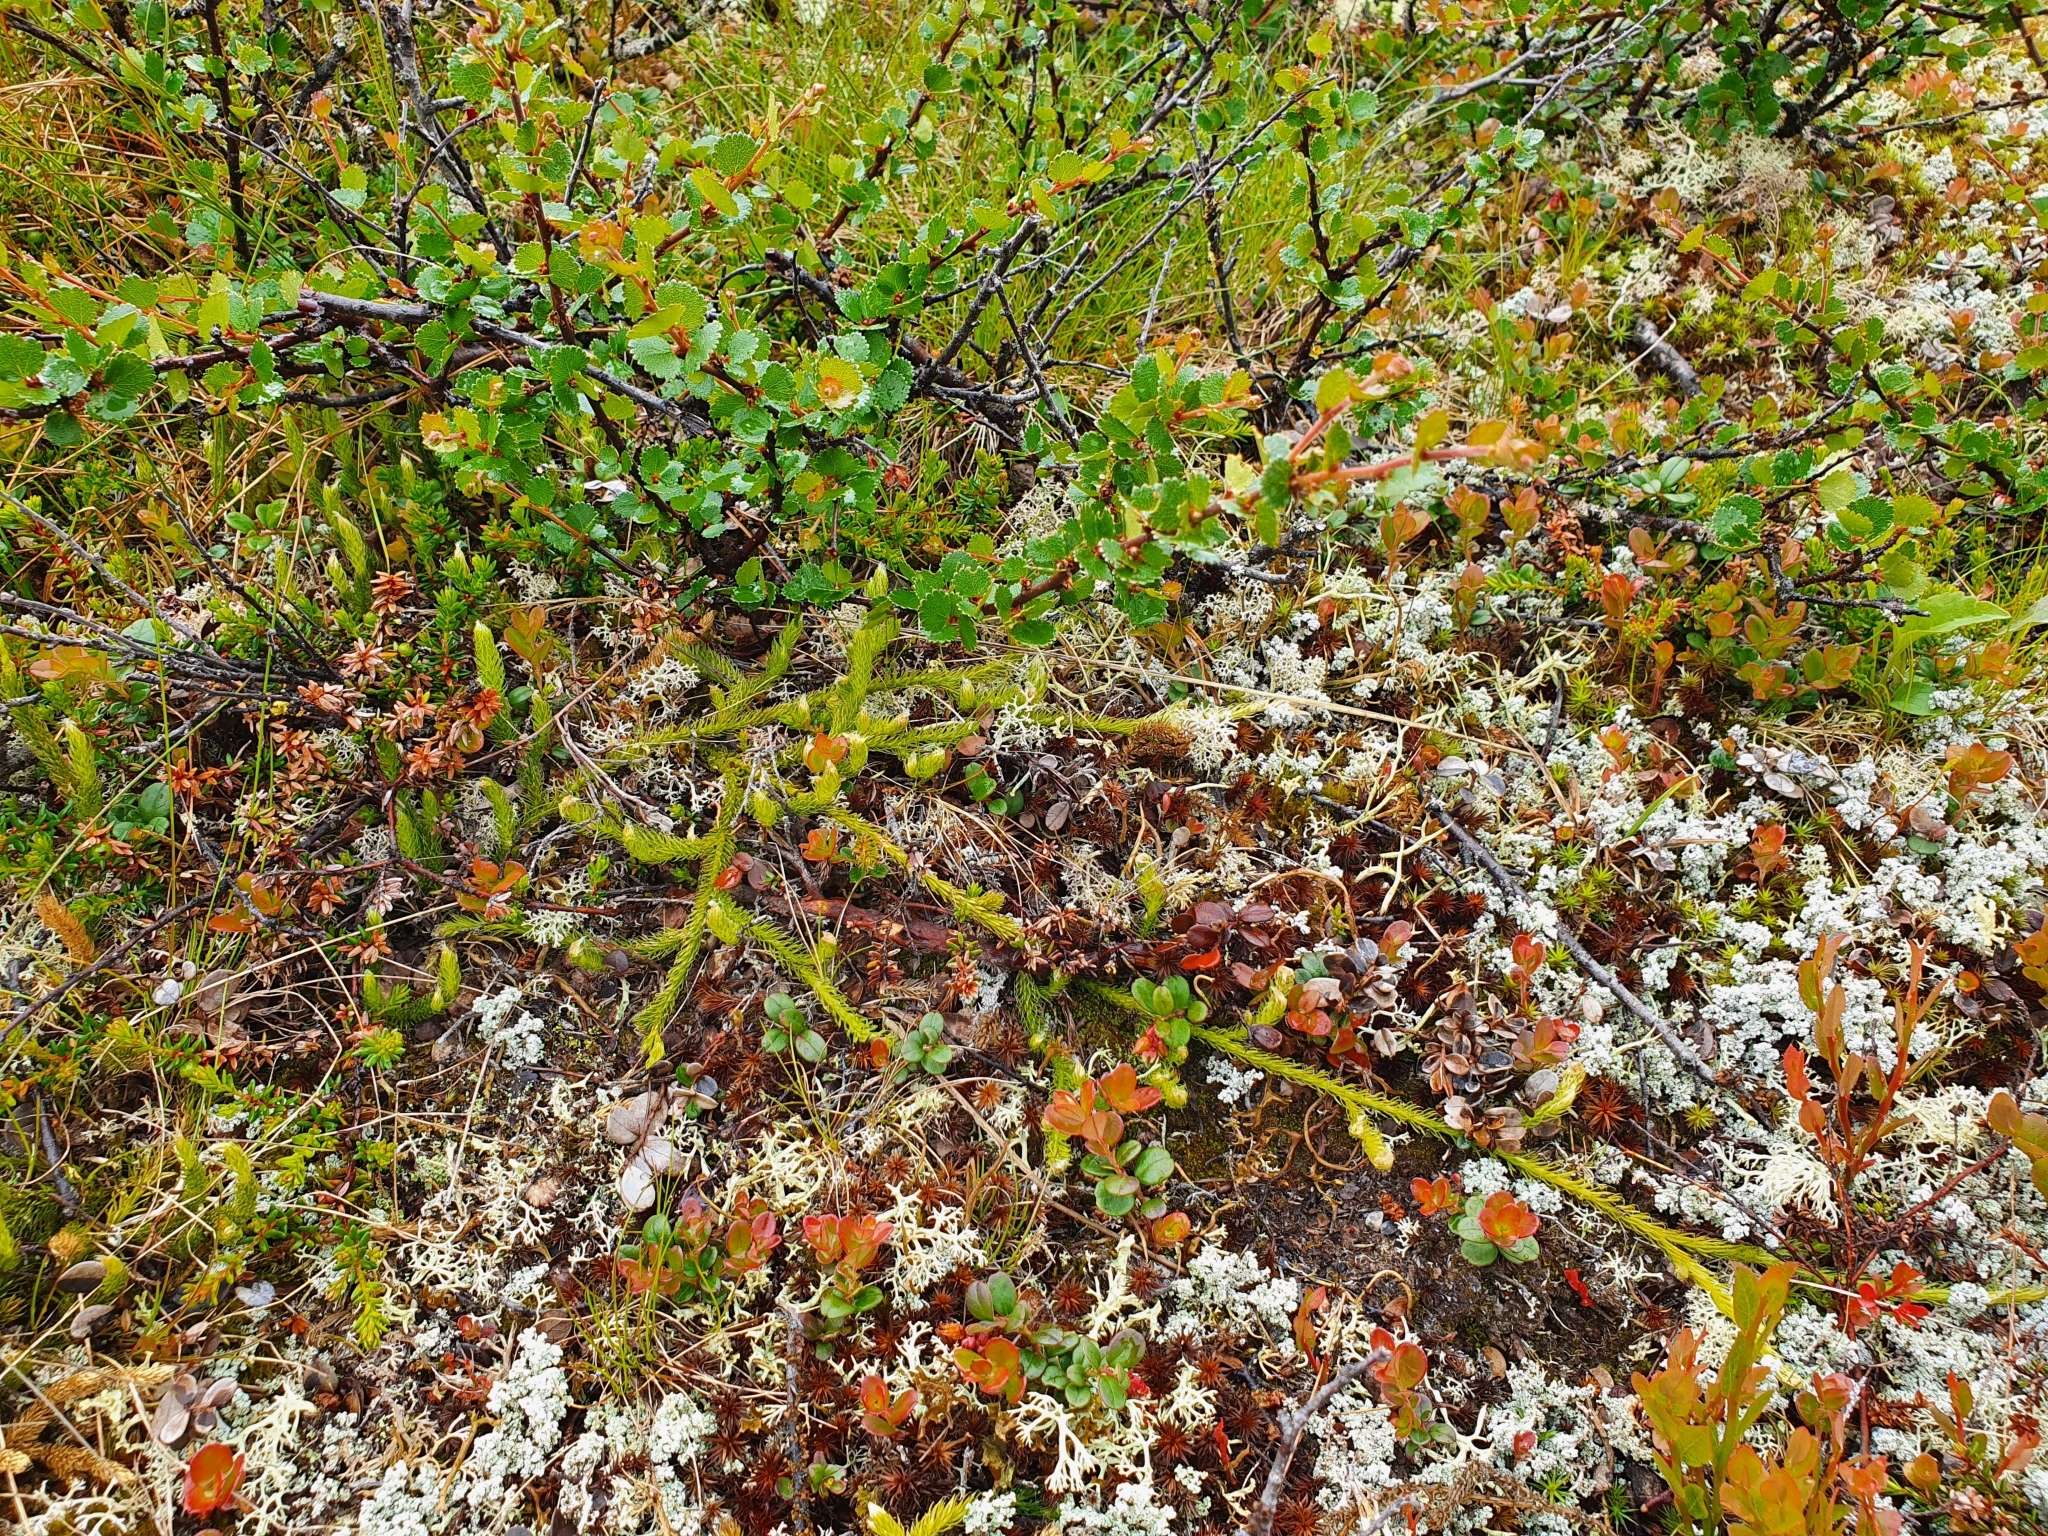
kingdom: Plantae
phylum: Tracheophyta
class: Lycopodiopsida
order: Lycopodiales
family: Lycopodiaceae
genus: Lycopodium
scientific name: Lycopodium clavatum
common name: Stag's-horn clubmoss
